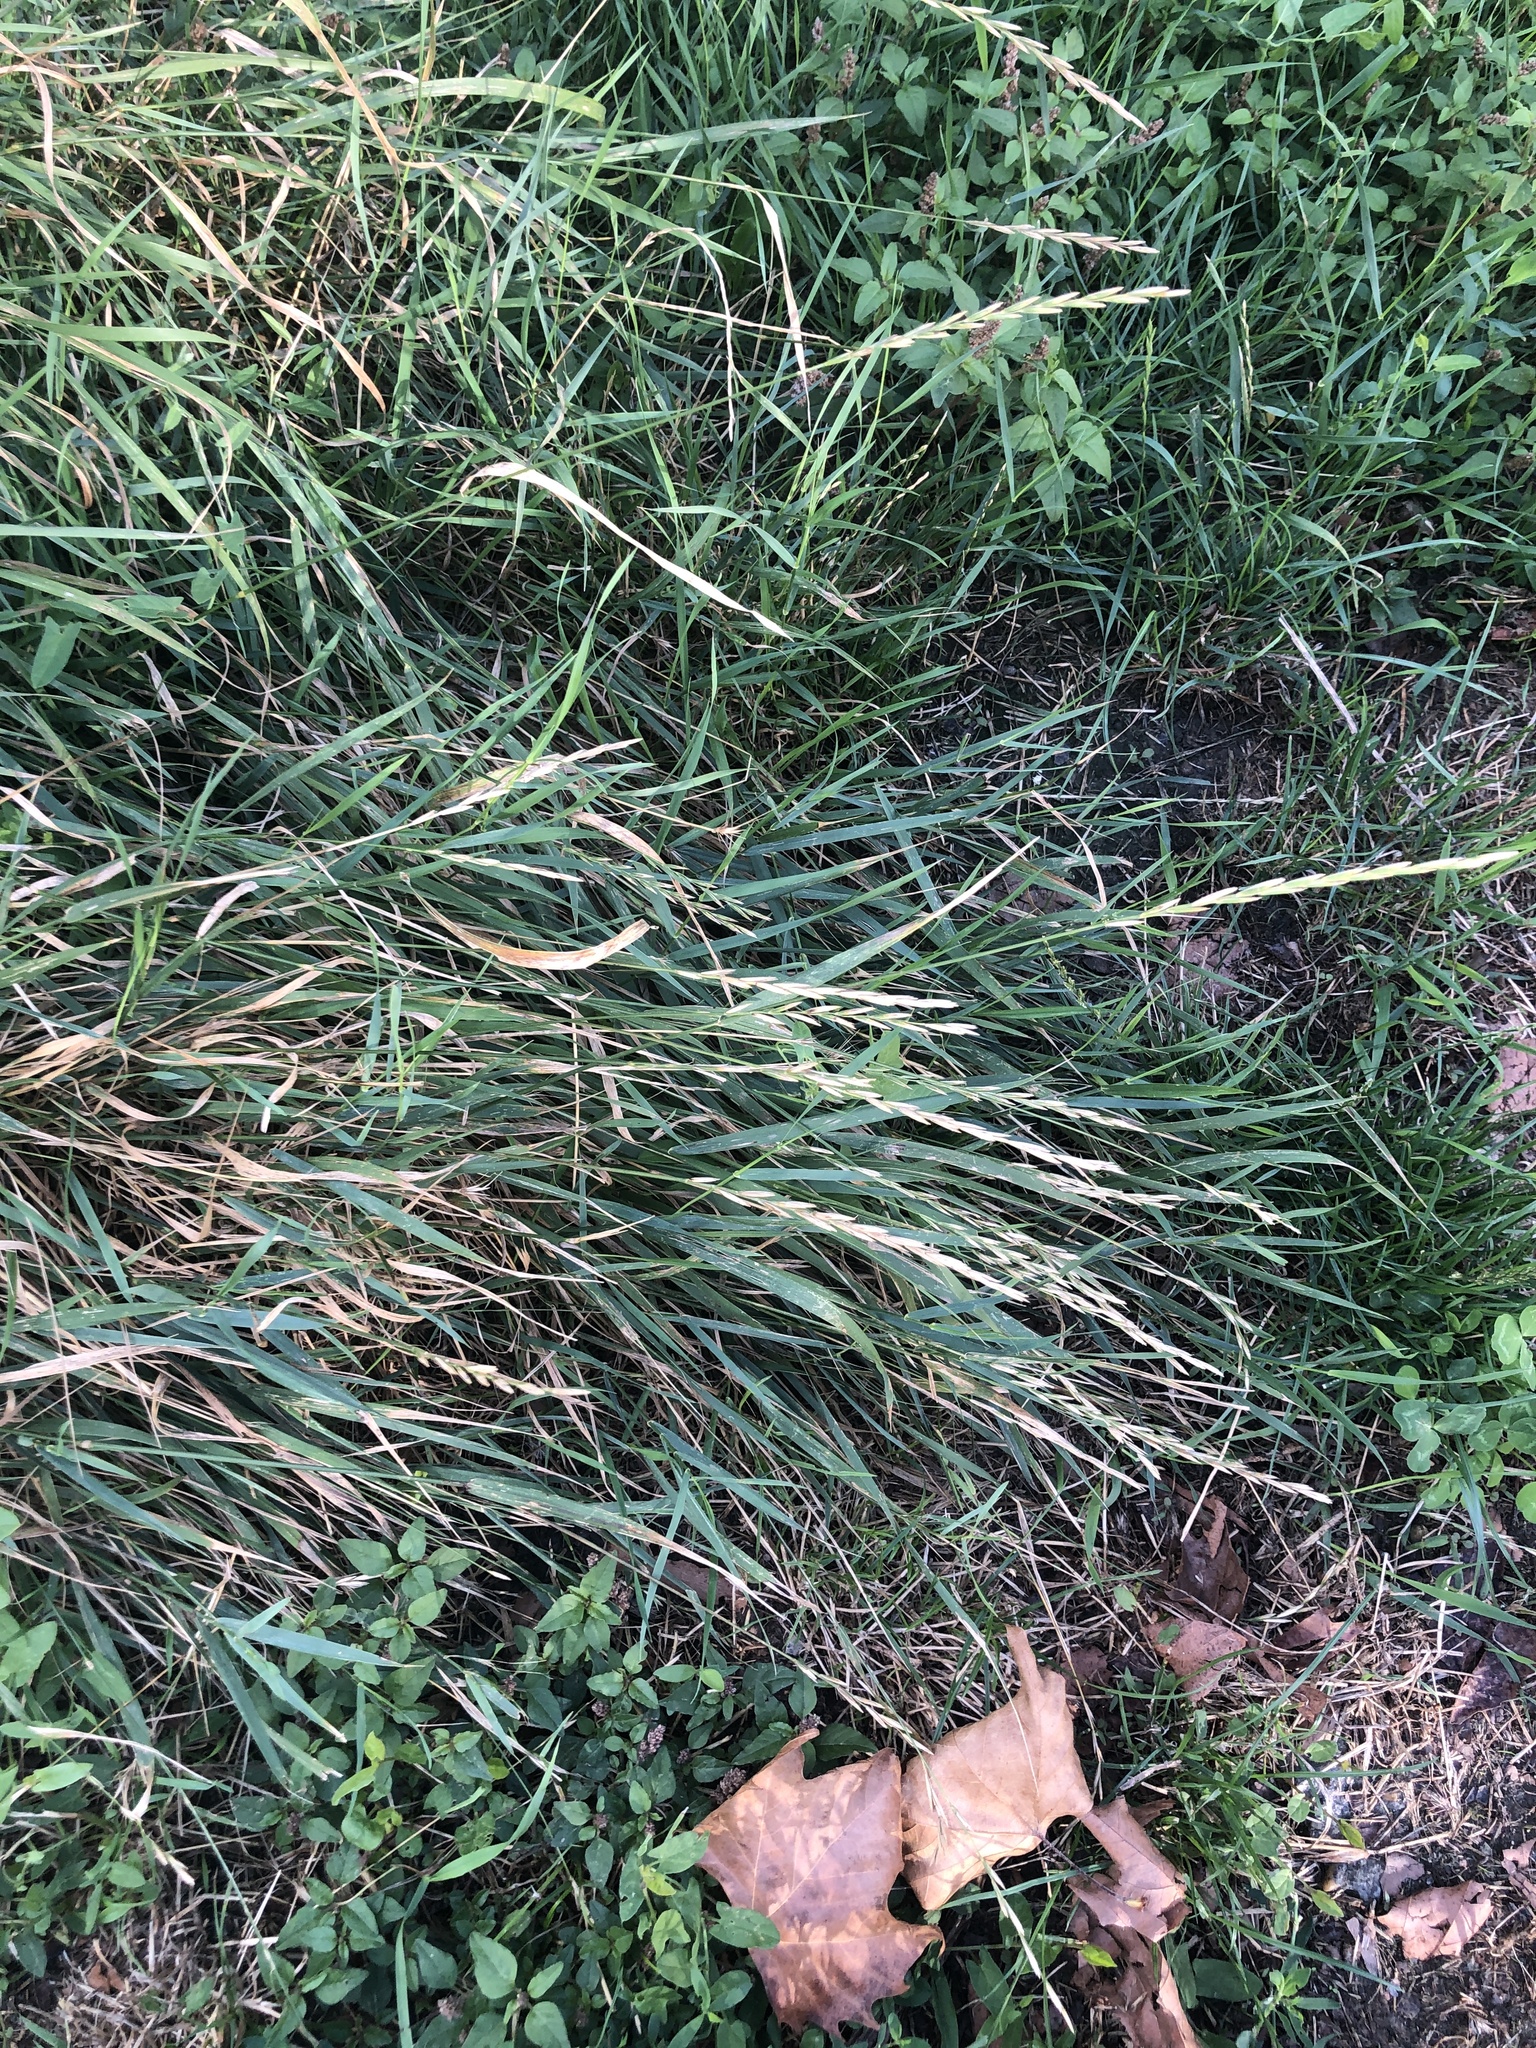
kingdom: Plantae
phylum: Tracheophyta
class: Liliopsida
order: Poales
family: Poaceae
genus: Elymus
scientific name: Elymus repens
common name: Quackgrass
